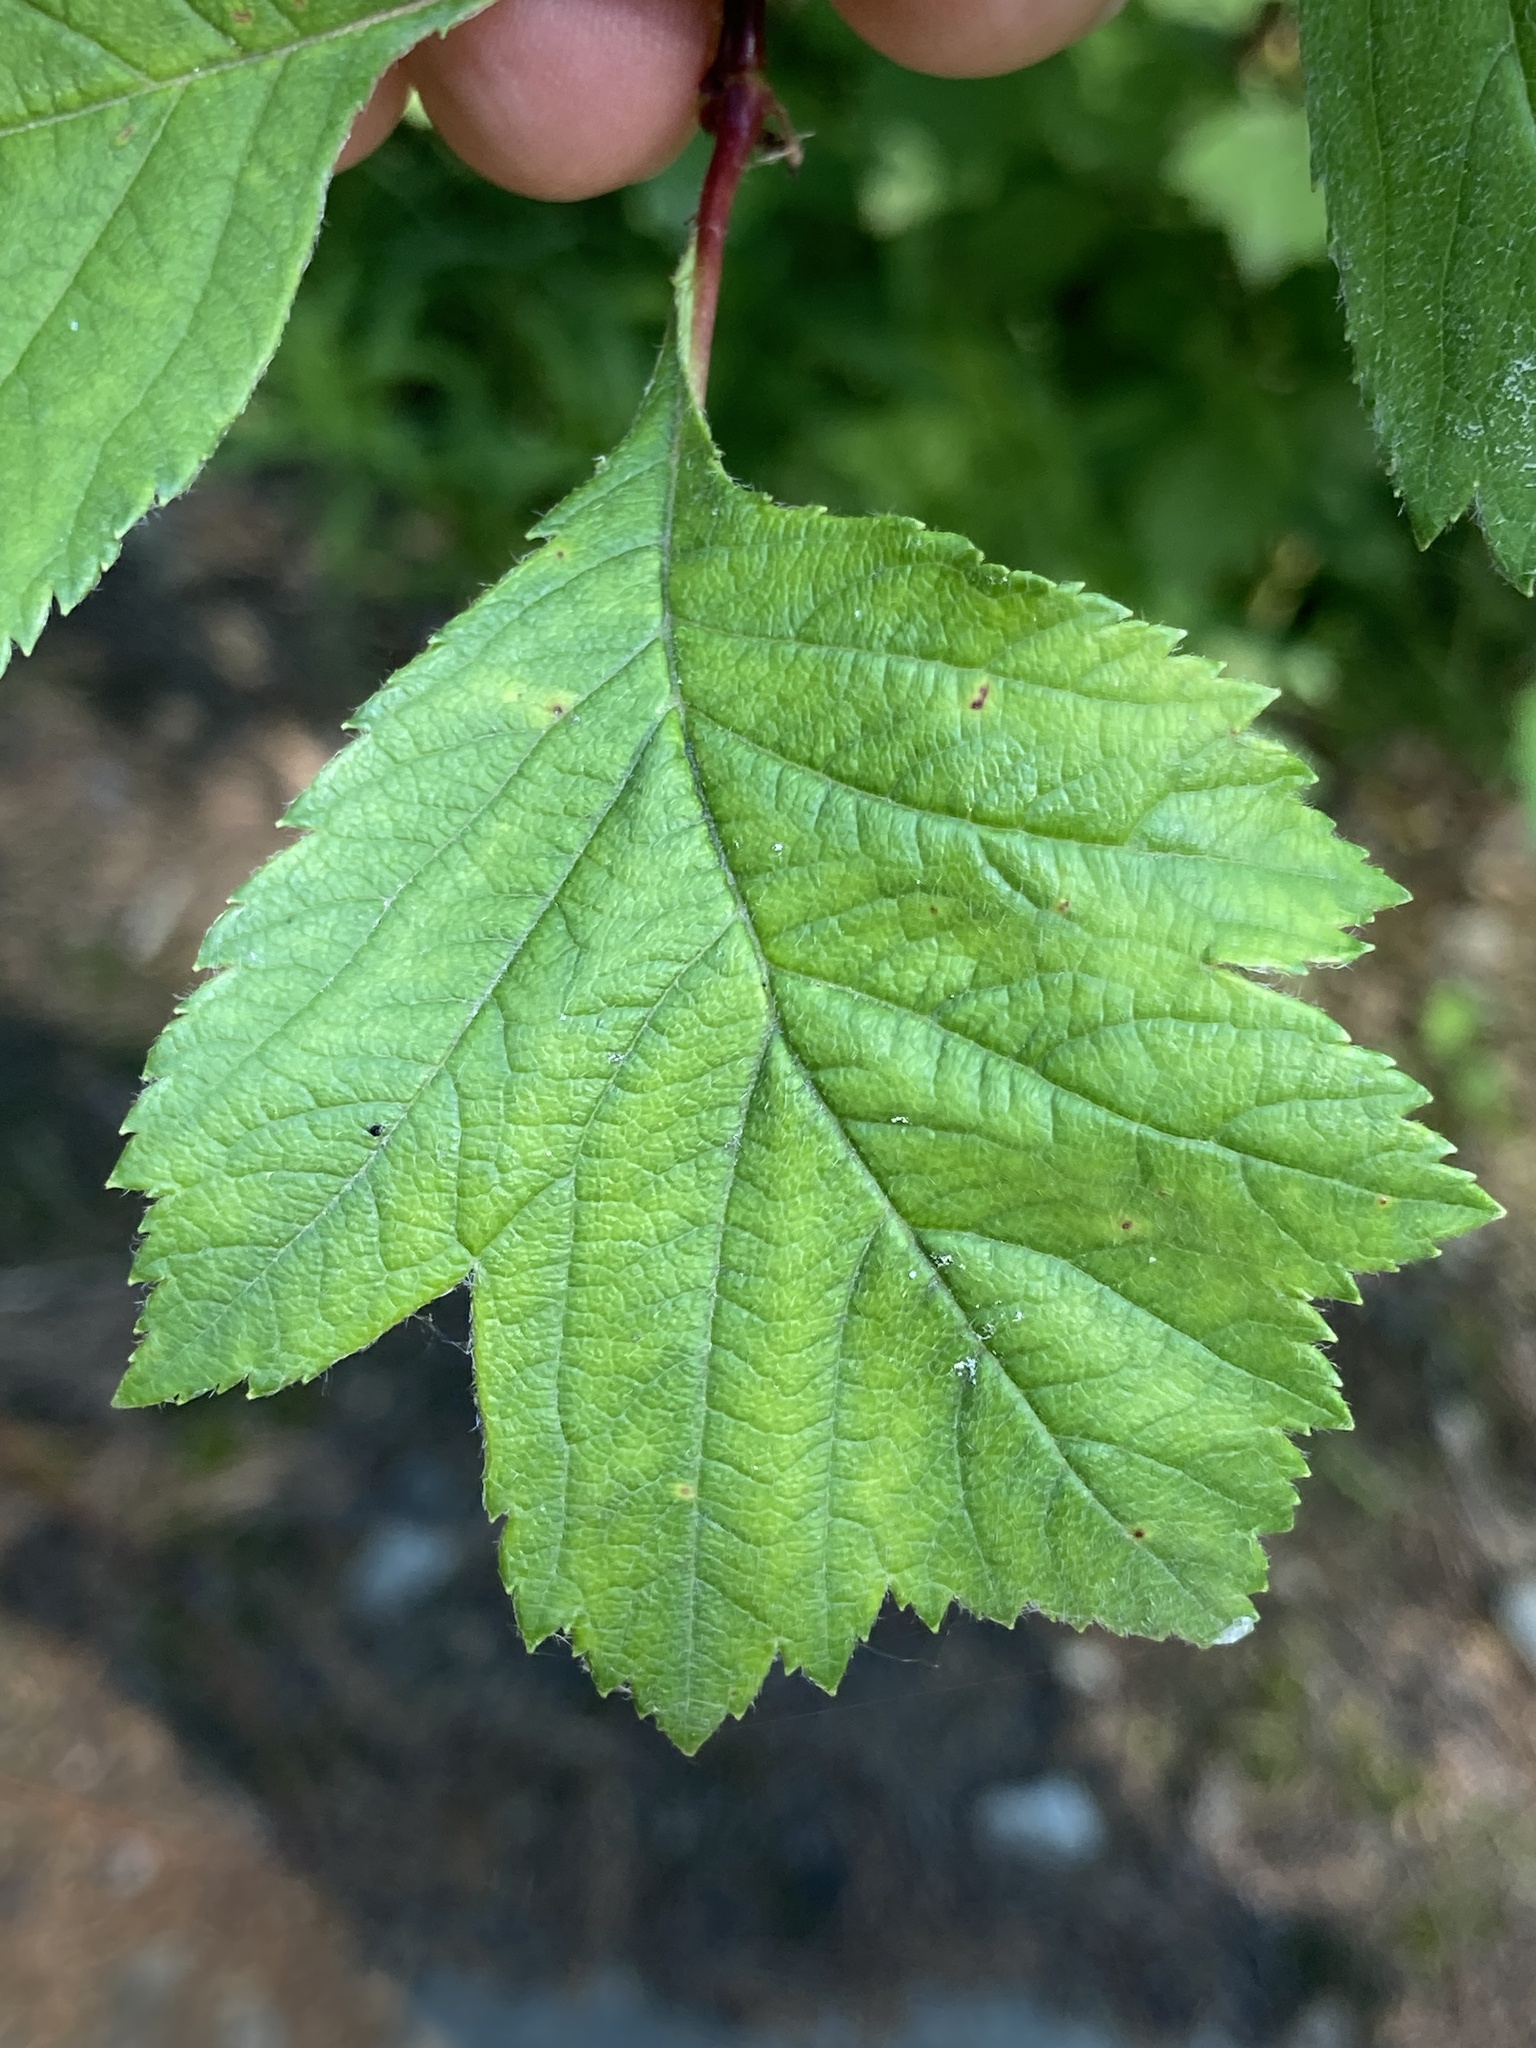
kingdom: Plantae
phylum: Tracheophyta
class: Magnoliopsida
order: Rosales
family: Rosaceae
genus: Crataegus
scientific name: Crataegus sanguinea
